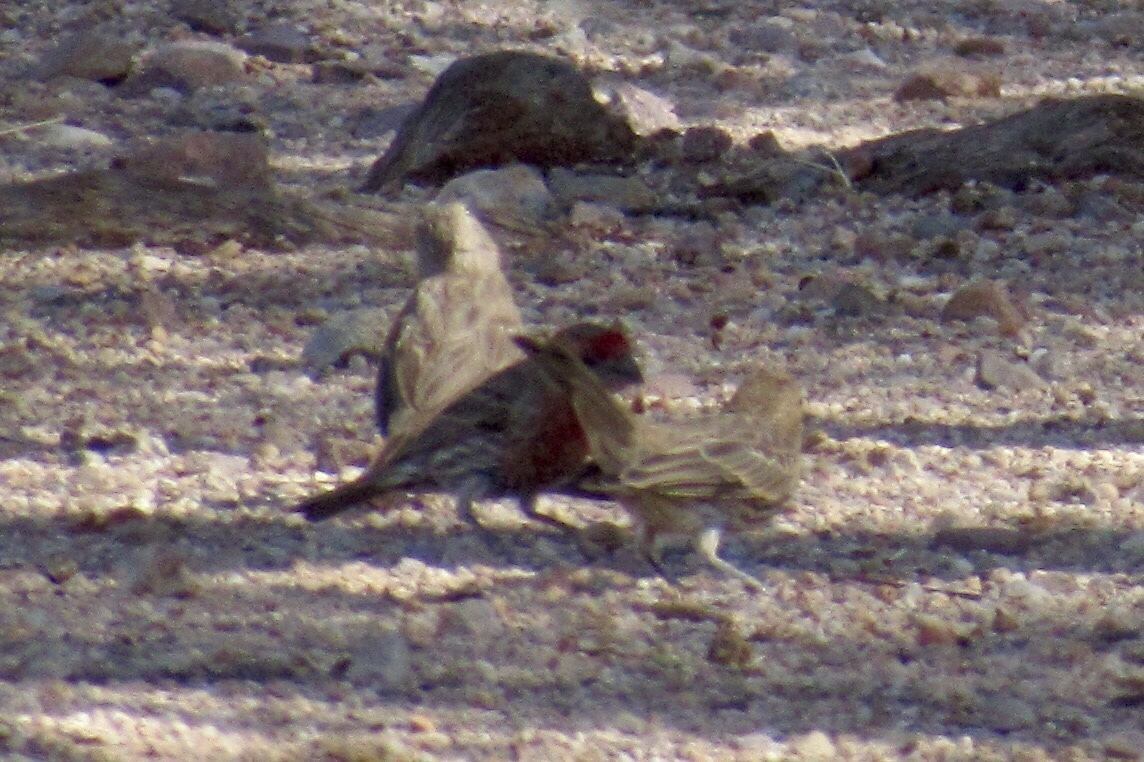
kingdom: Animalia
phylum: Chordata
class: Aves
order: Passeriformes
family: Fringillidae
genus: Haemorhous
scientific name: Haemorhous mexicanus
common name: House finch
